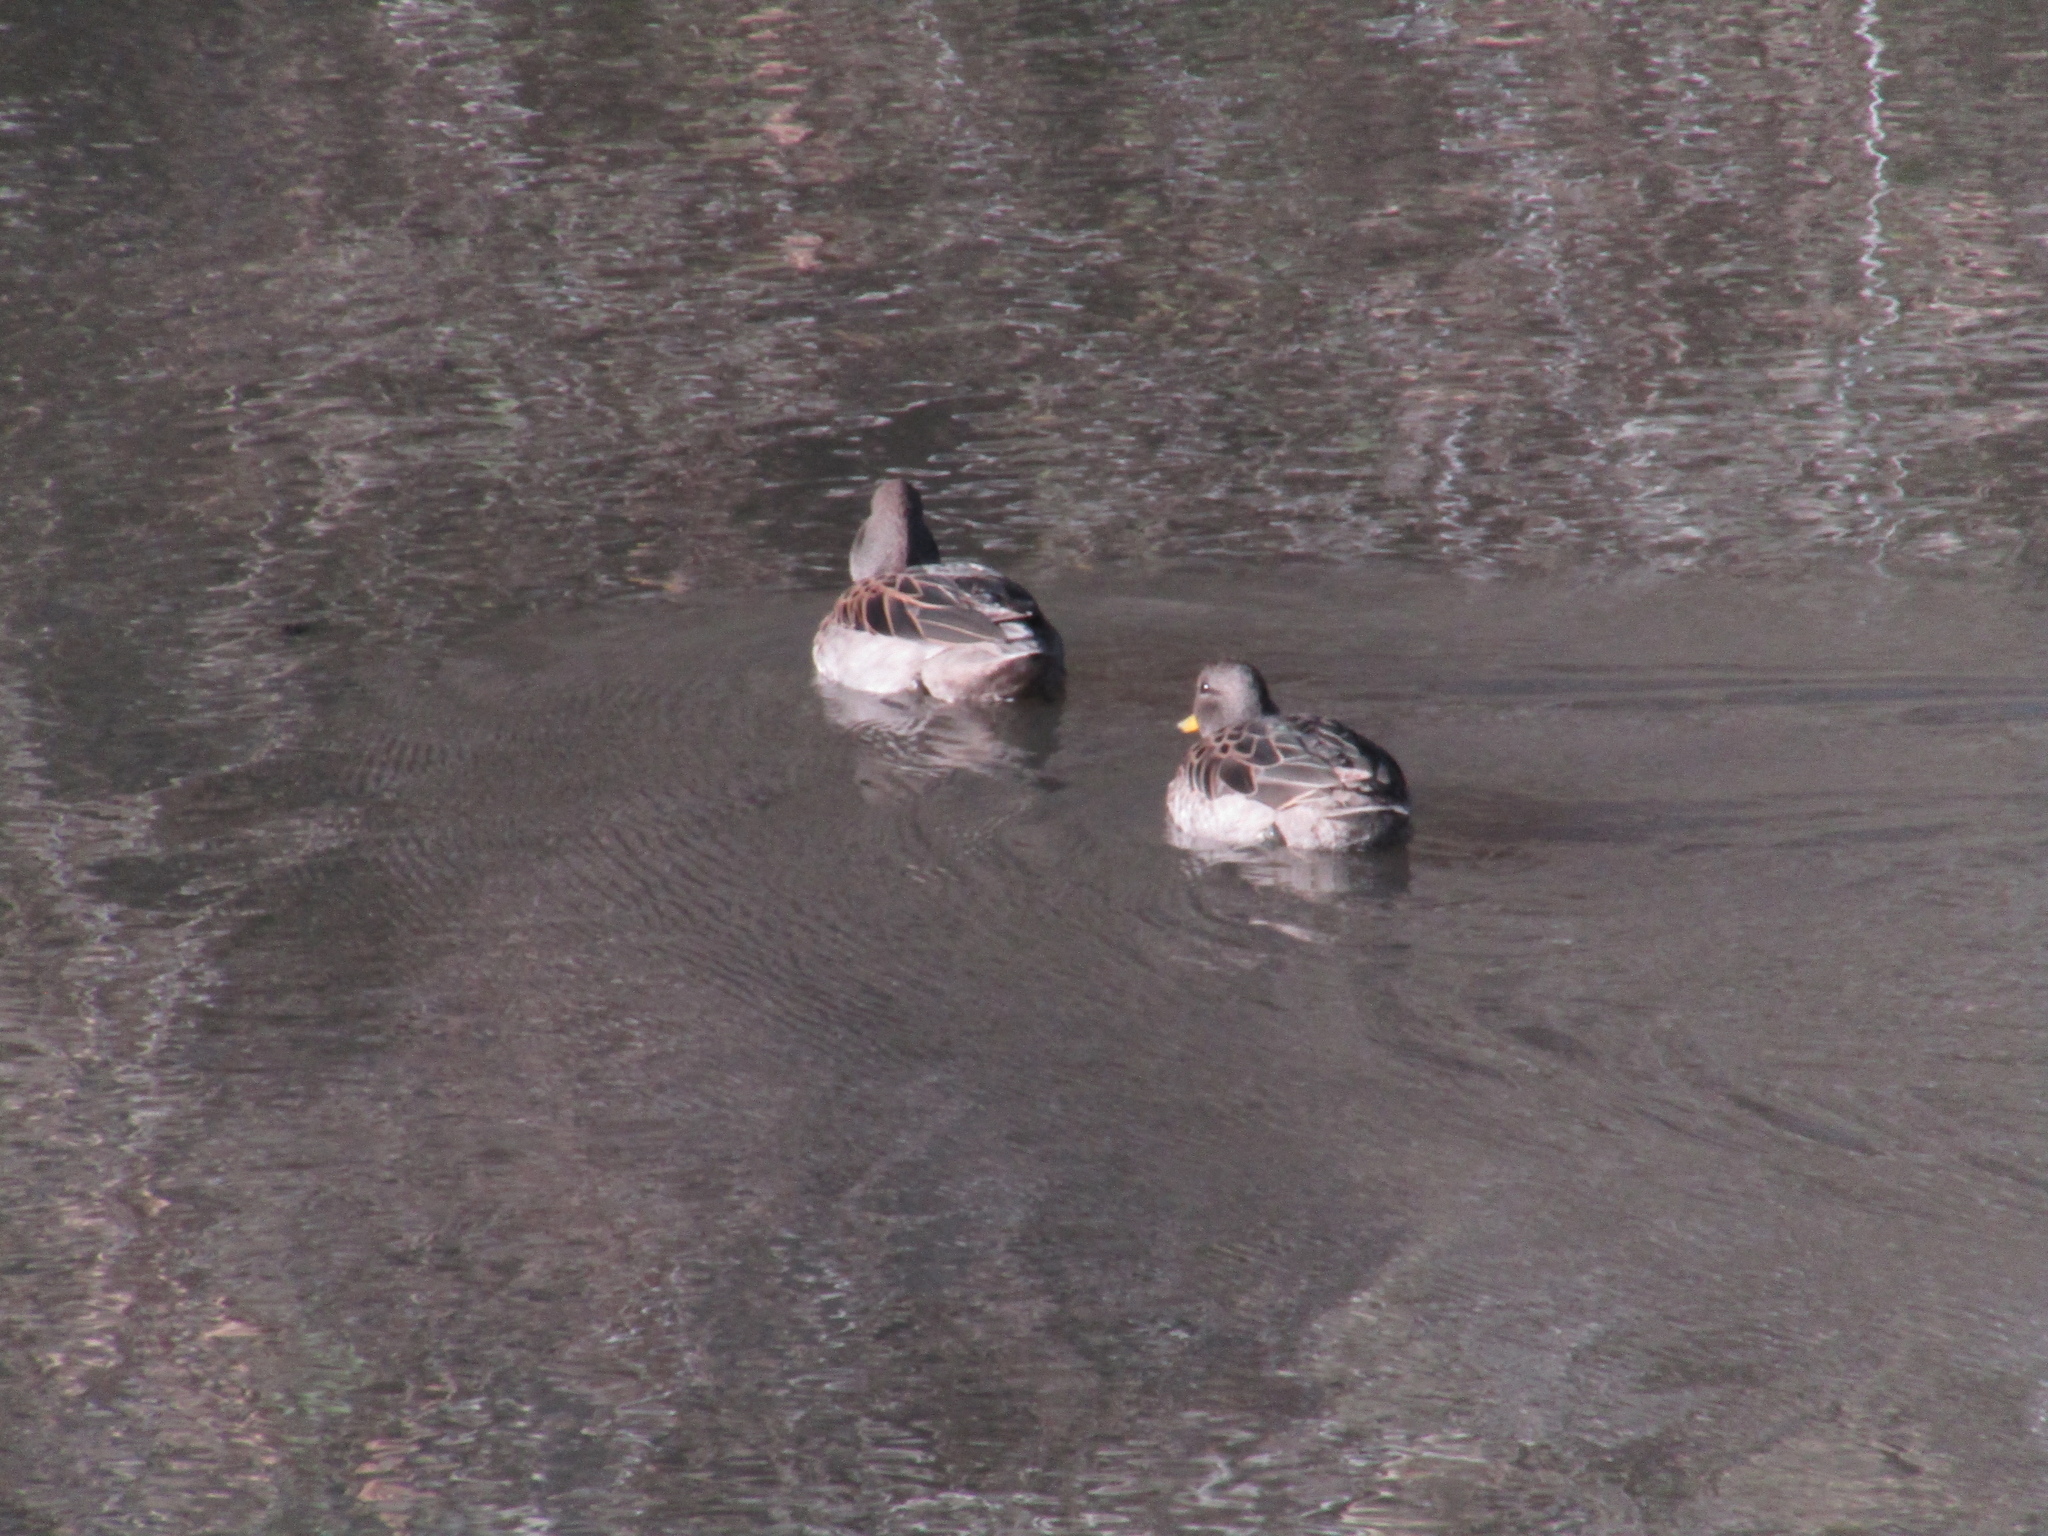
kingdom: Animalia
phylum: Chordata
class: Aves
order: Anseriformes
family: Anatidae
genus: Anas
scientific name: Anas flavirostris
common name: Yellow-billed teal
